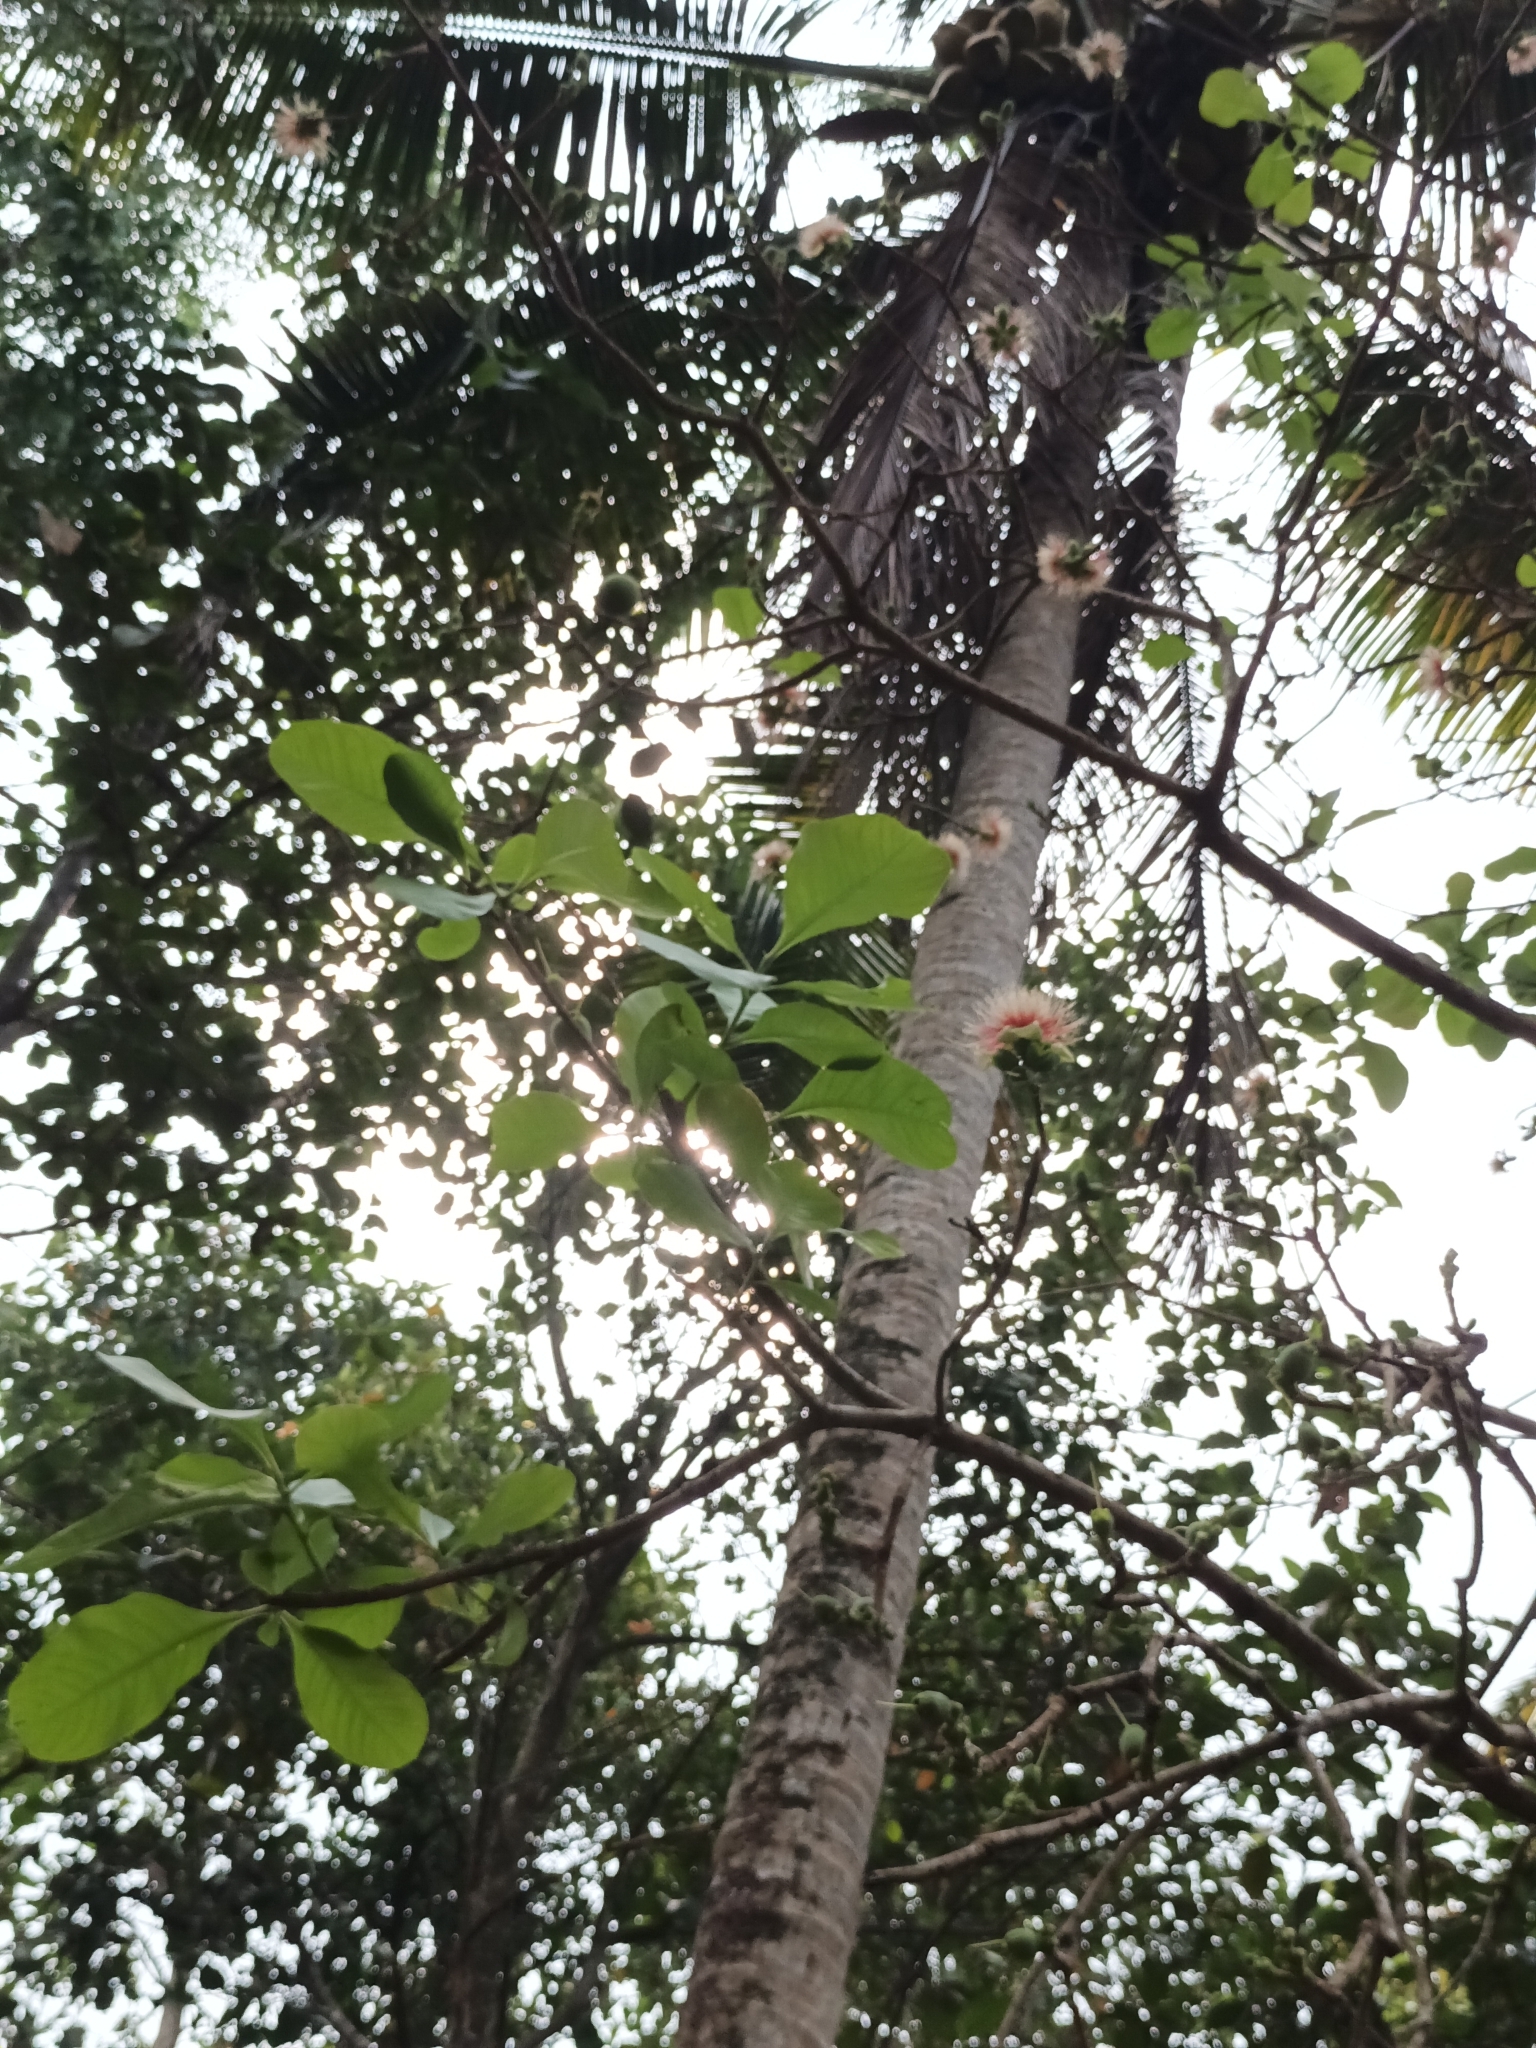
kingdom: Plantae
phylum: Tracheophyta
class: Magnoliopsida
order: Ericales
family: Lecythidaceae
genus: Careya
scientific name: Careya arborea
